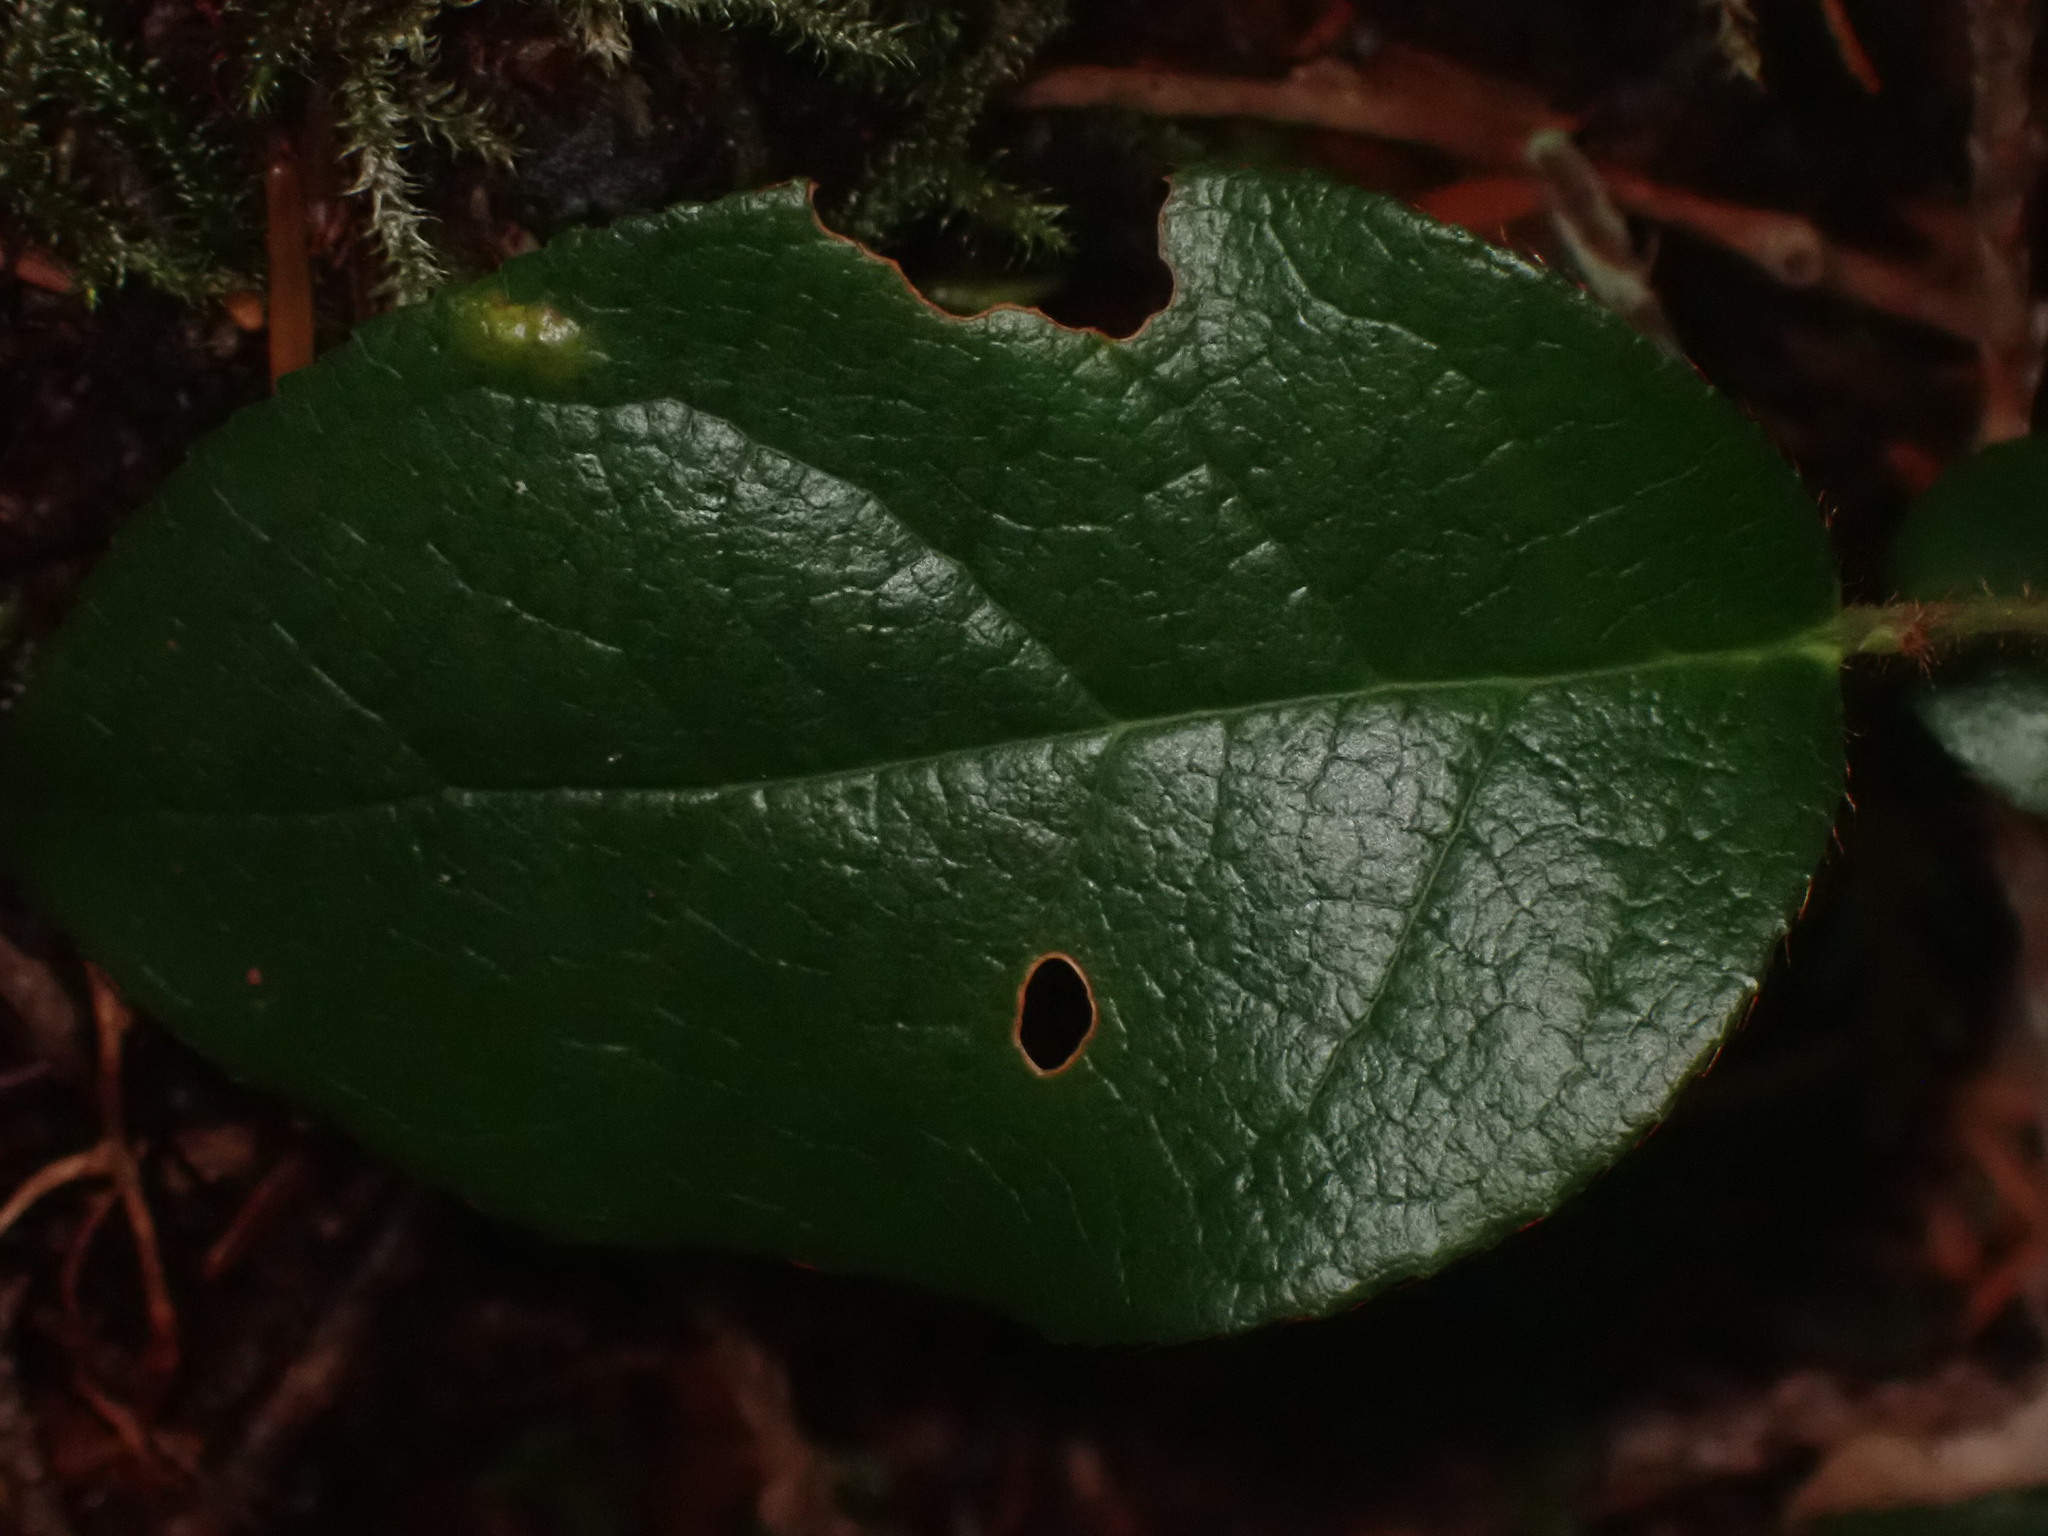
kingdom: Plantae
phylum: Tracheophyta
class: Magnoliopsida
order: Ericales
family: Ericaceae
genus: Gaultheria
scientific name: Gaultheria shallon
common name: Shallon
